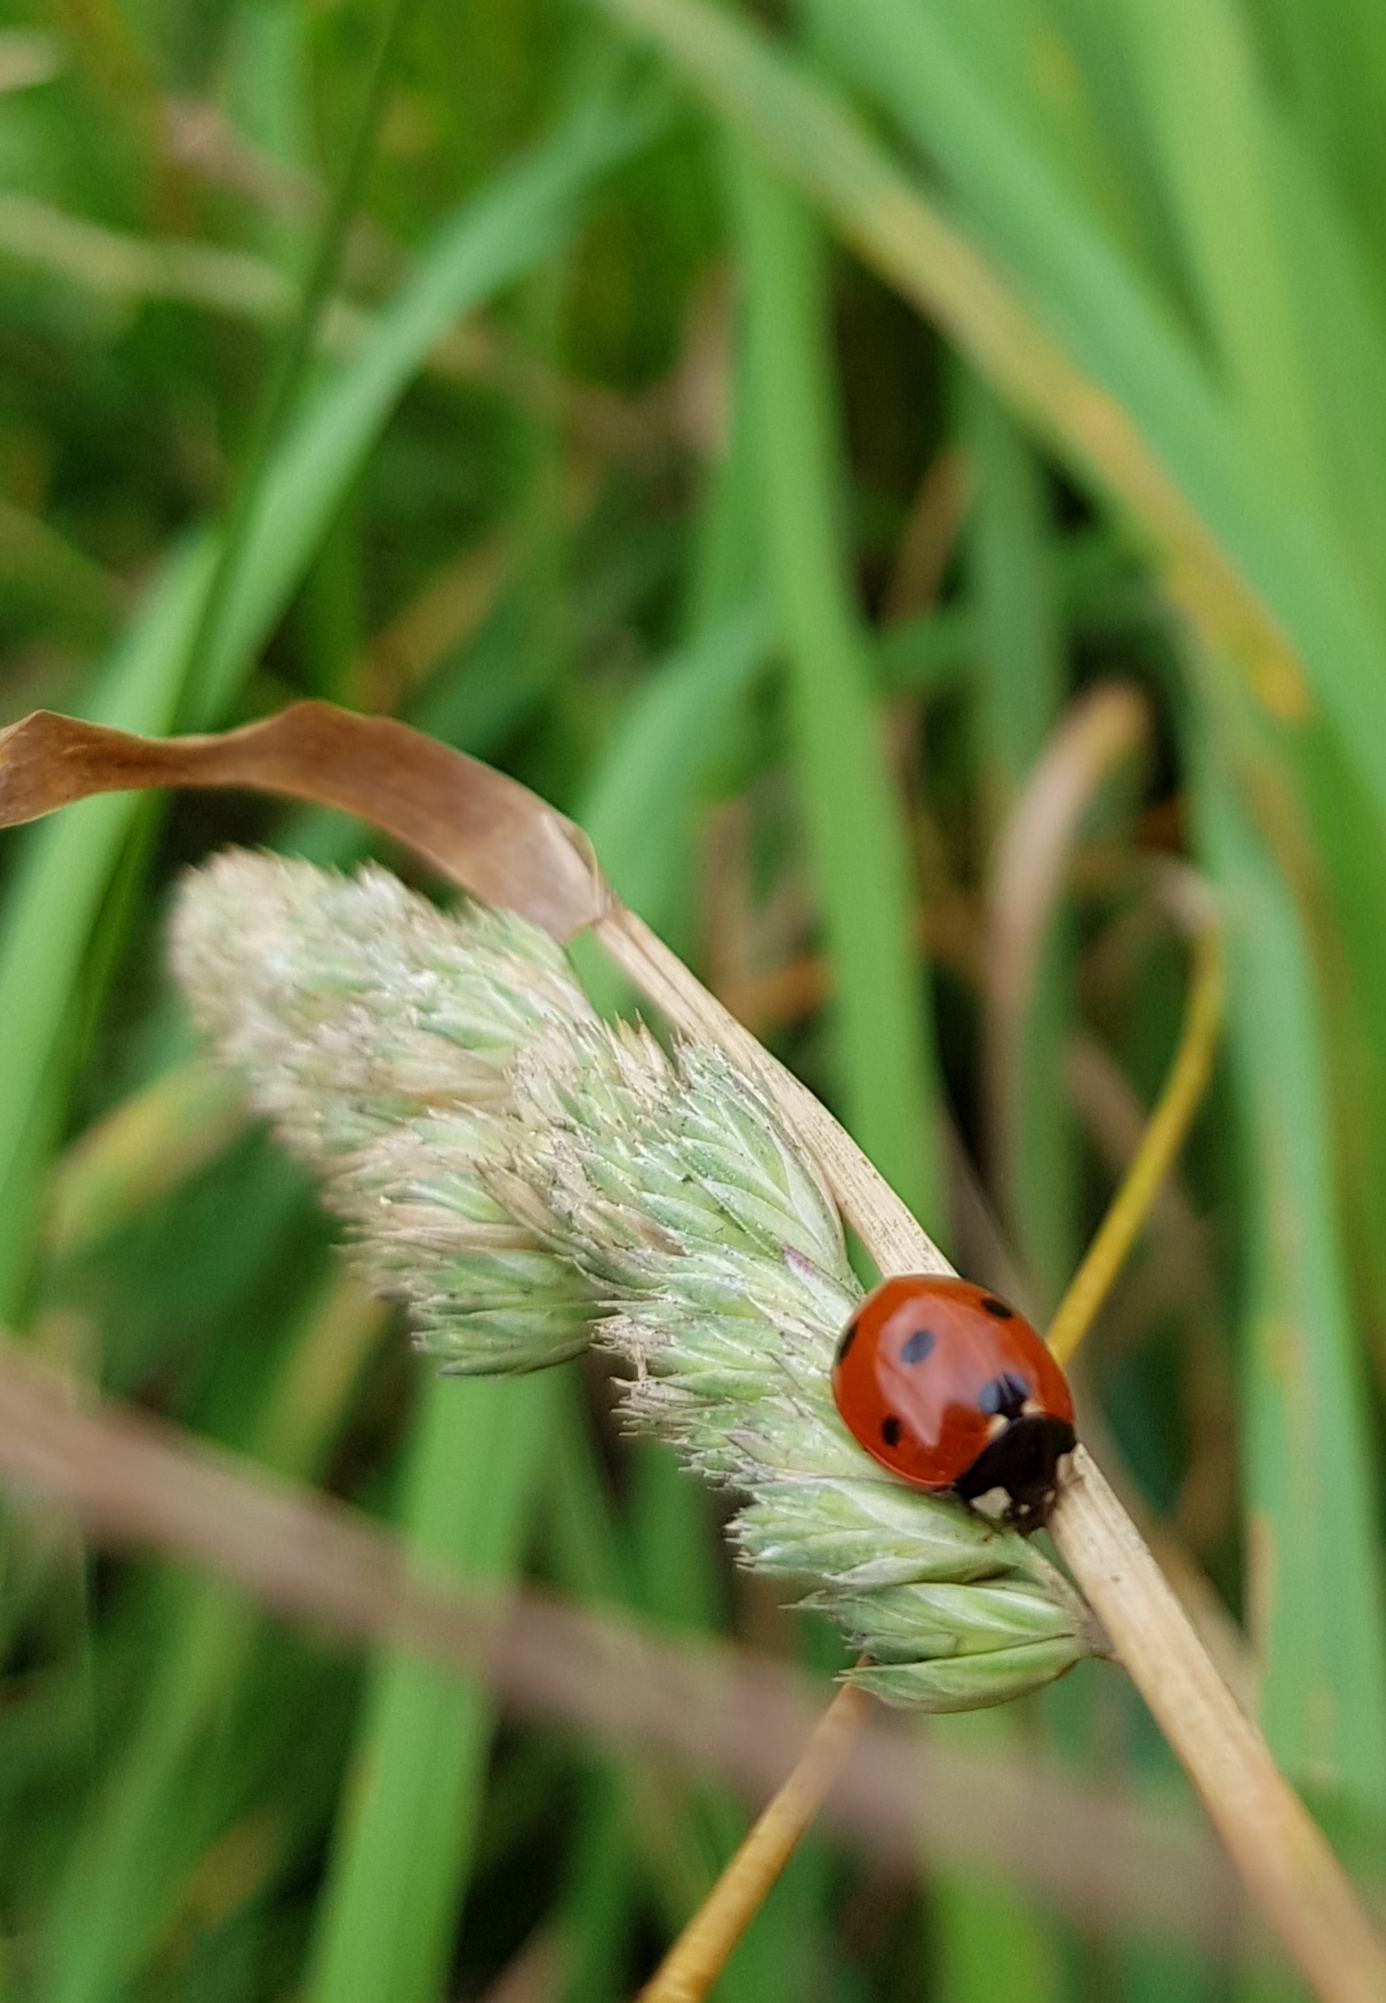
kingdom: Animalia
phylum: Arthropoda
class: Insecta
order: Coleoptera
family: Coccinellidae
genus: Coccinella
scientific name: Coccinella septempunctata
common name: Sevenspotted lady beetle
